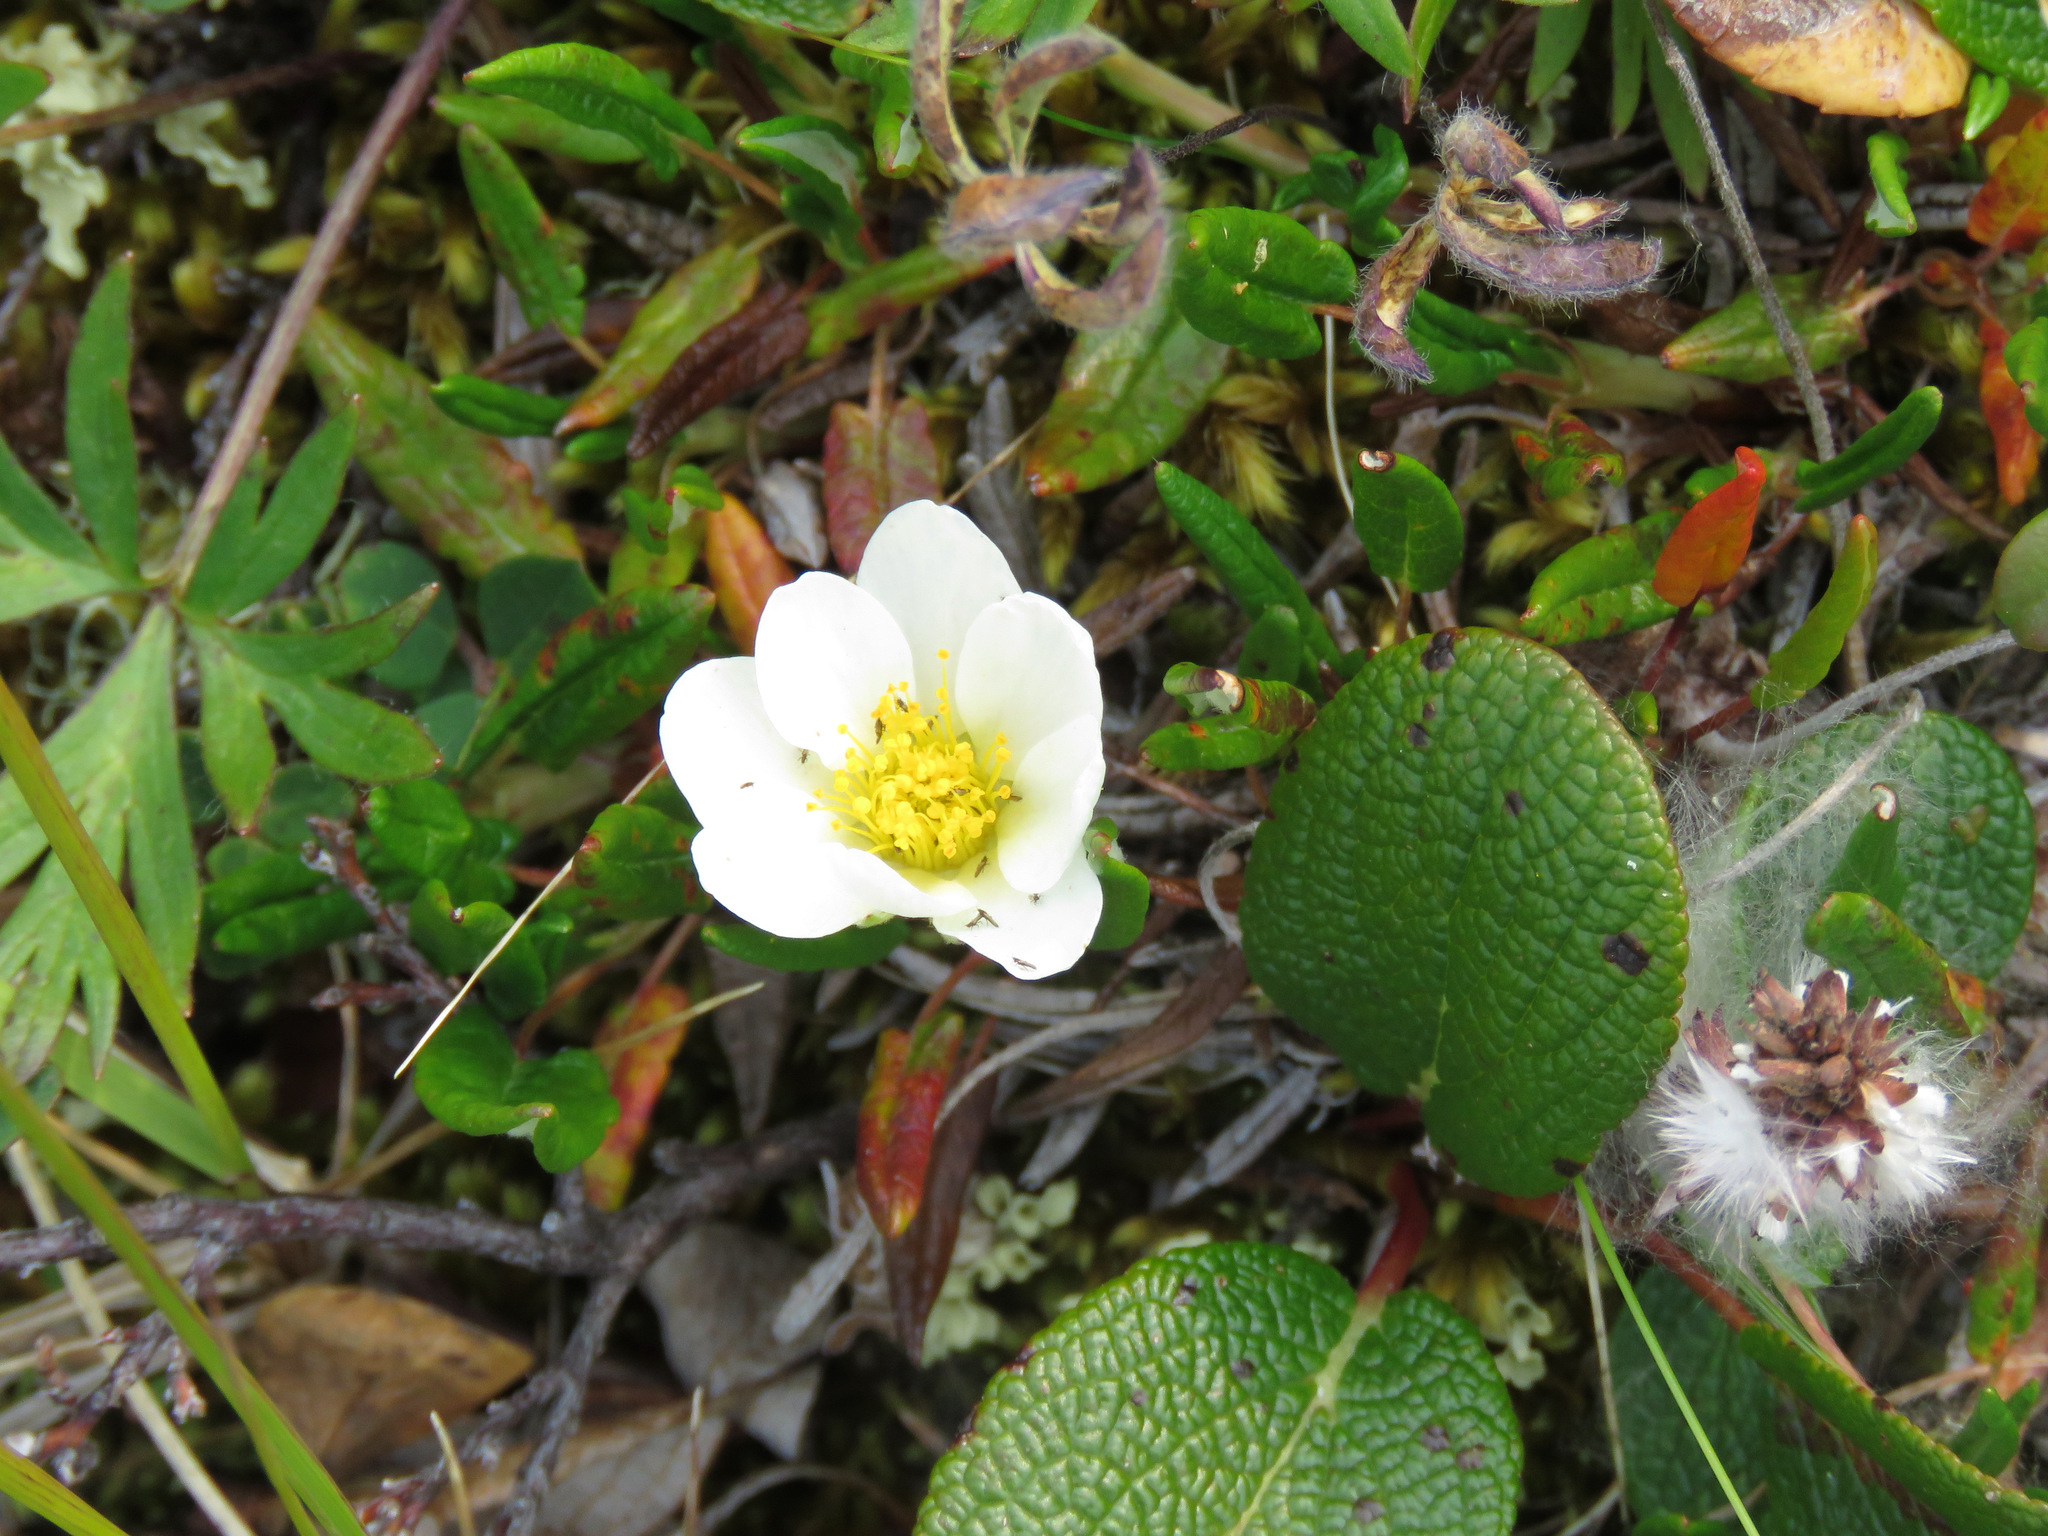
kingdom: Plantae
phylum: Tracheophyta
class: Magnoliopsida
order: Rosales
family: Rosaceae
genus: Dryas
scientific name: Dryas integrifolia
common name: Entire-leaved mountain avens
